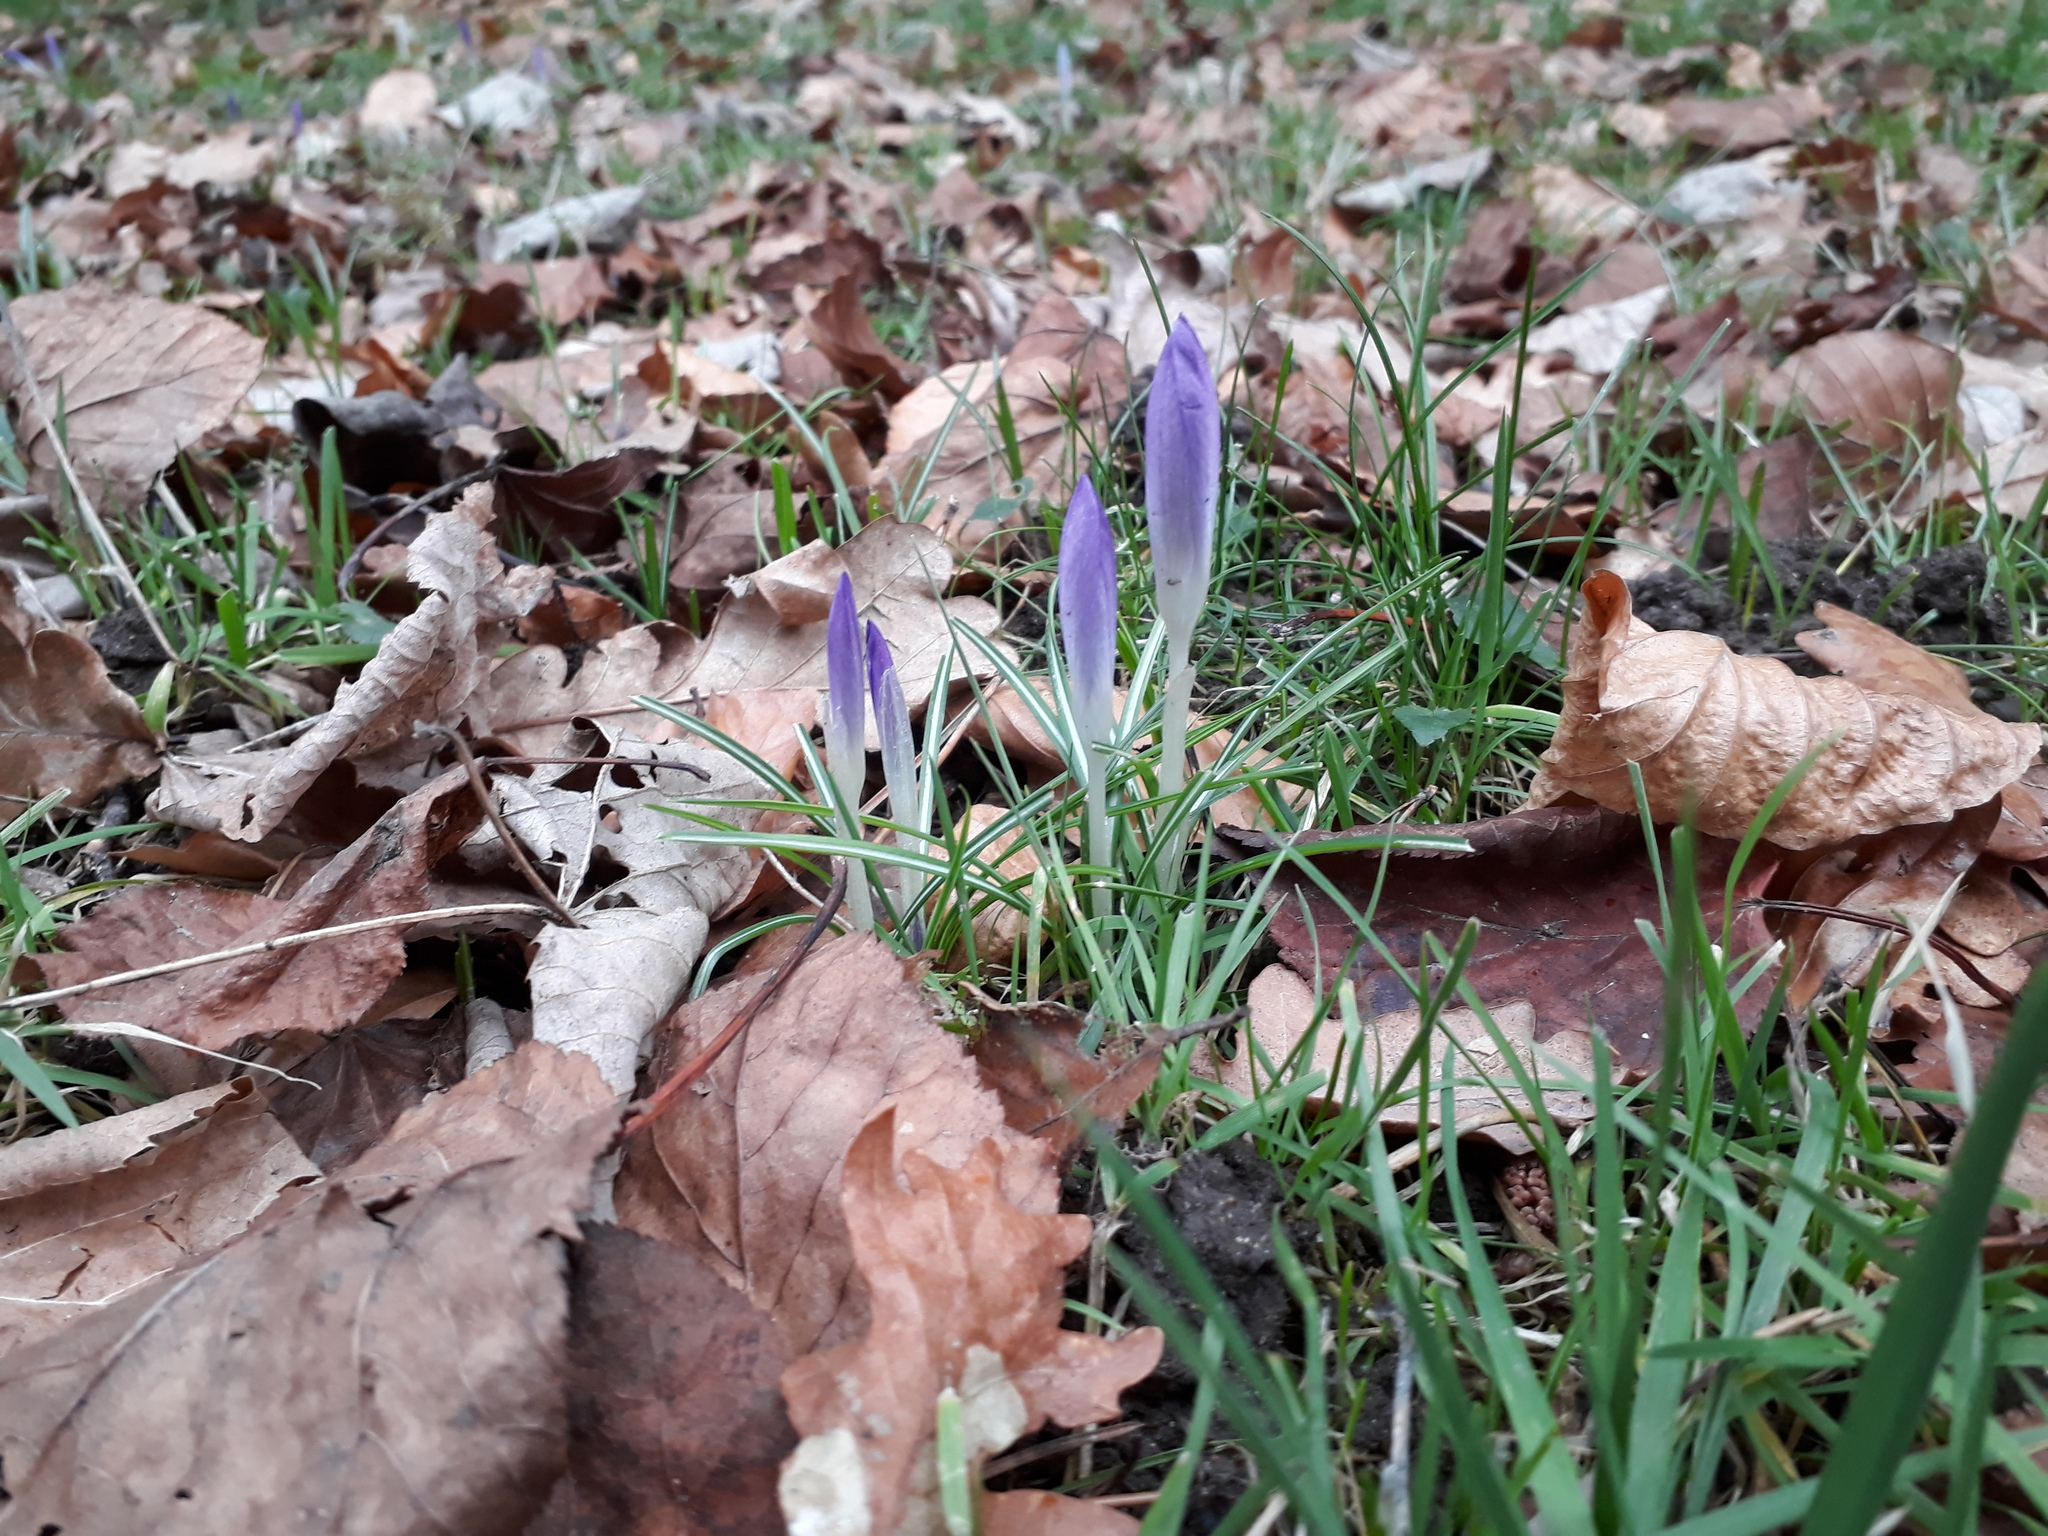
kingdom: Plantae
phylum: Tracheophyta
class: Liliopsida
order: Asparagales
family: Iridaceae
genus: Crocus
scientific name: Crocus tommasinianus
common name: Early crocus
